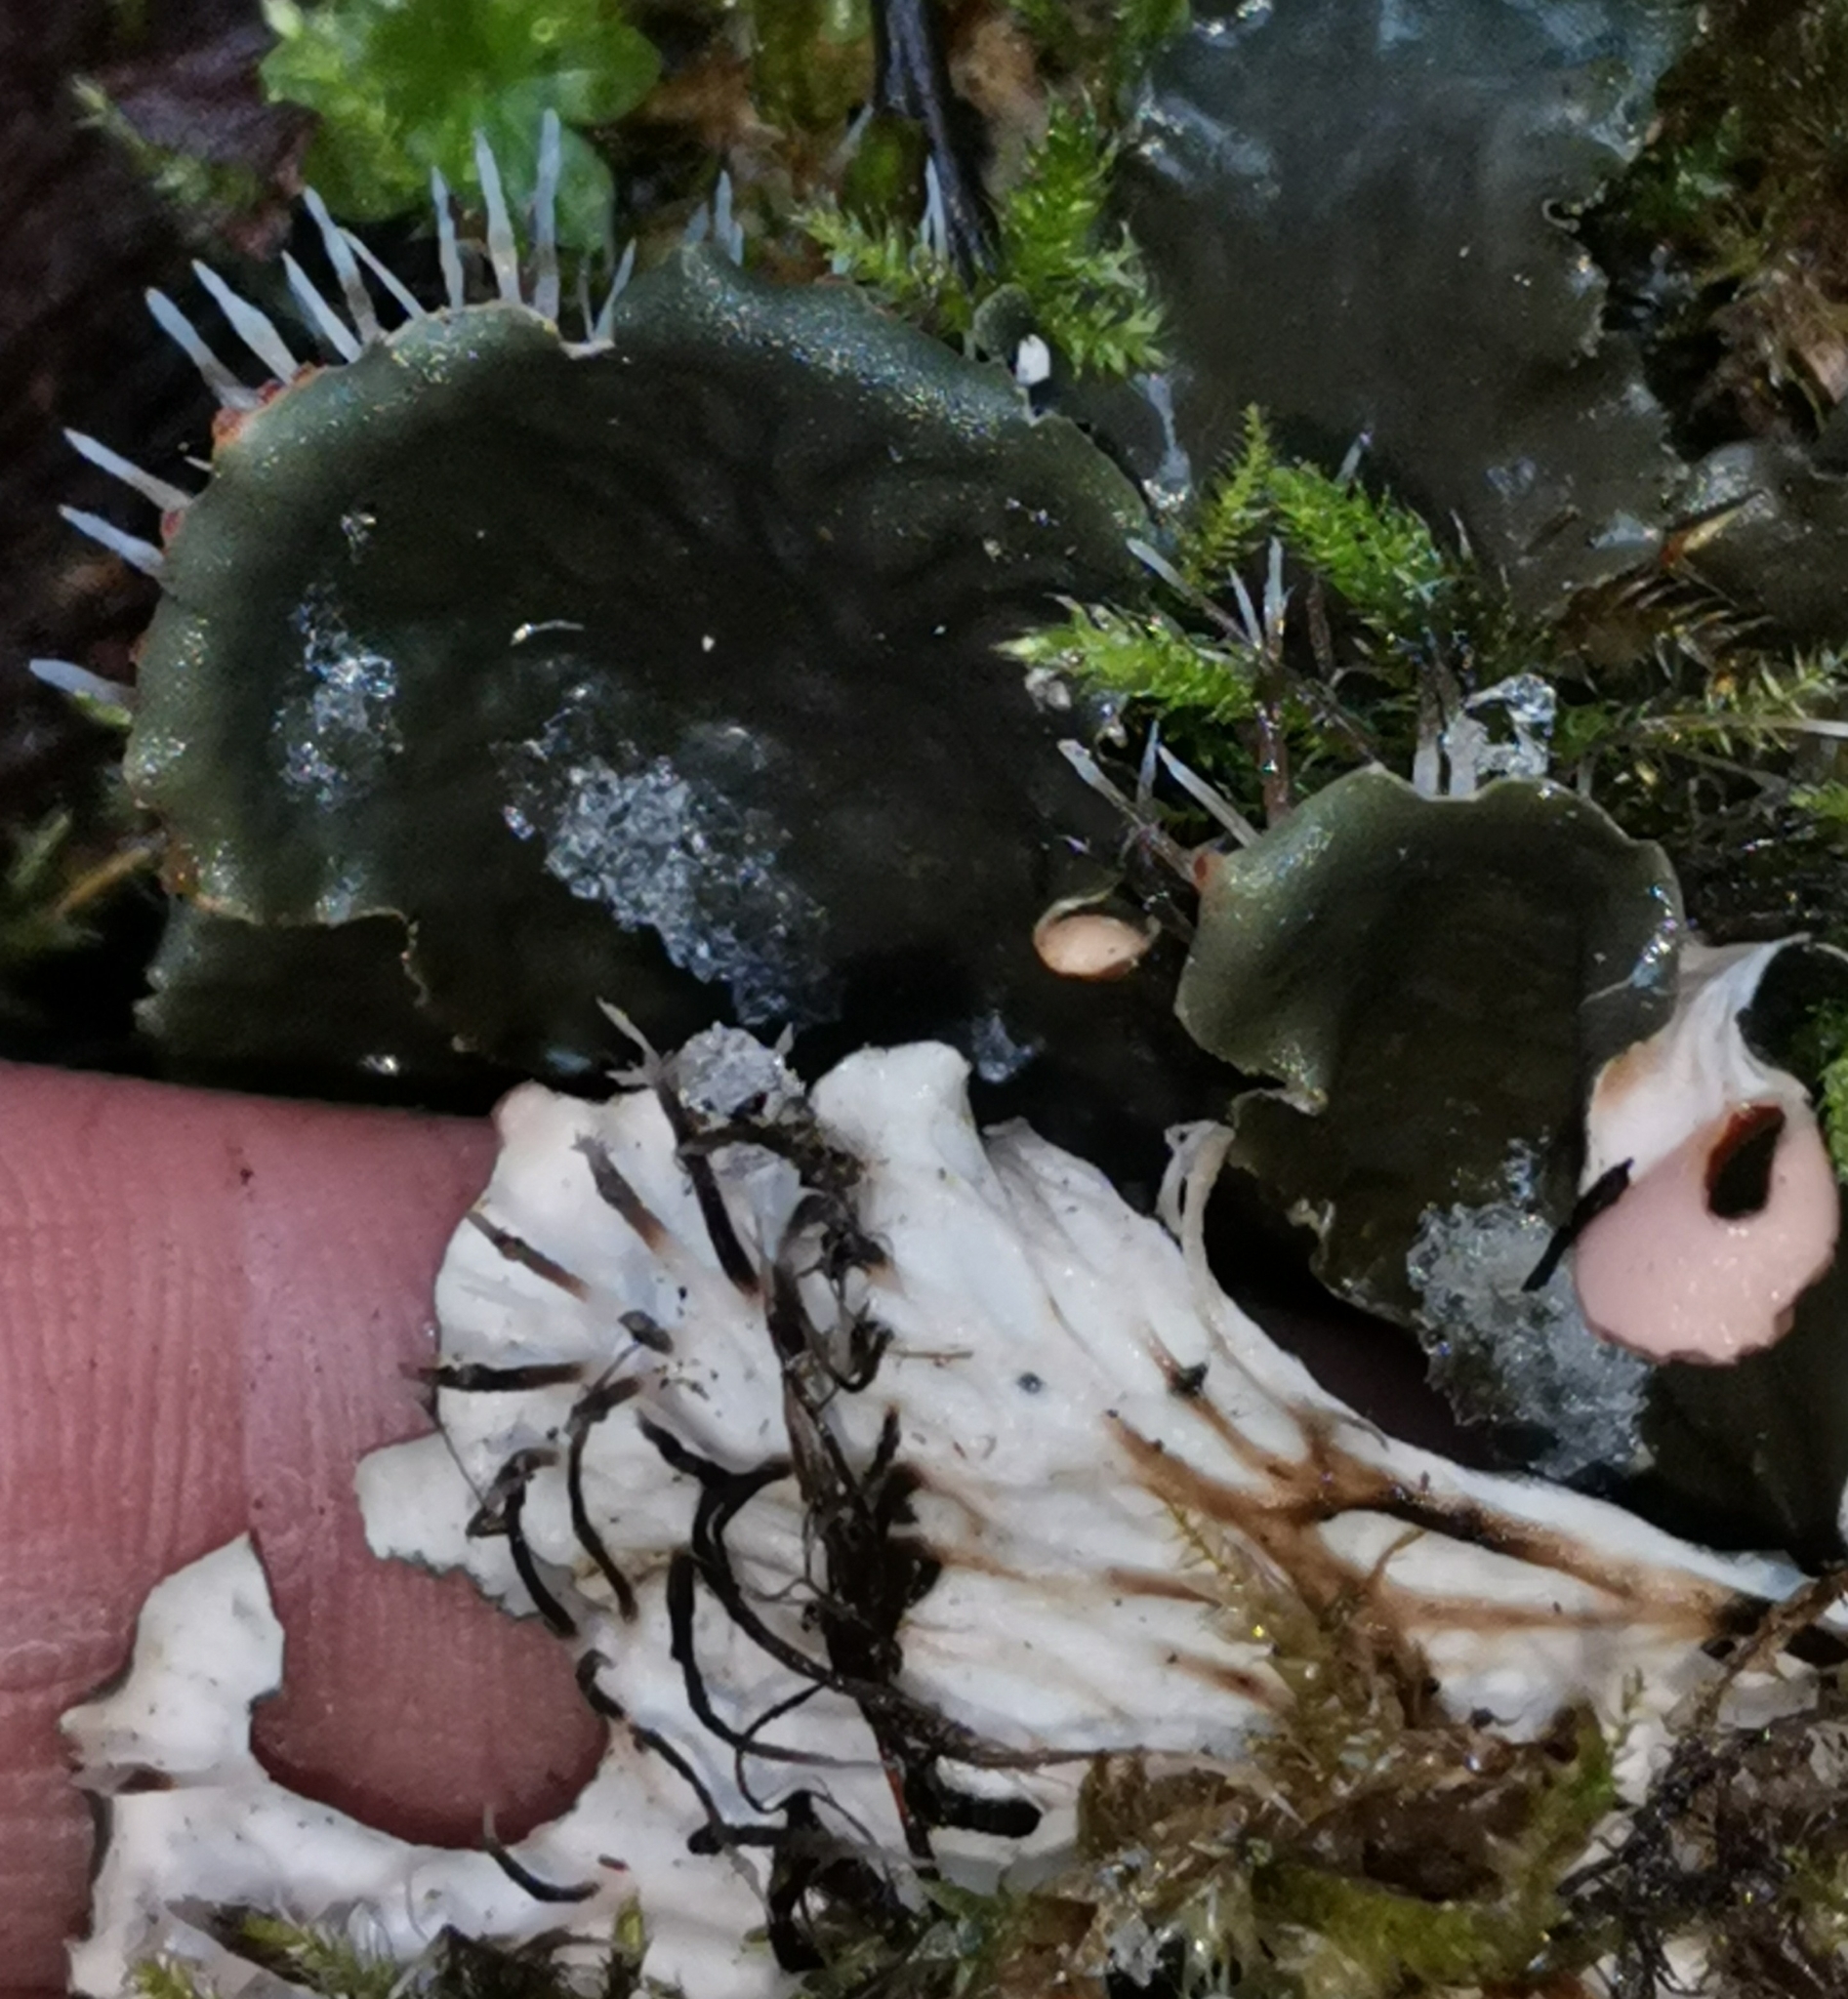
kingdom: Fungi
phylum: Ascomycota
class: Lecanoromycetes
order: Peltigerales
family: Peltigeraceae
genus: Peltigera
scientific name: Peltigera praetextata
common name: Scaly dog-lichen
